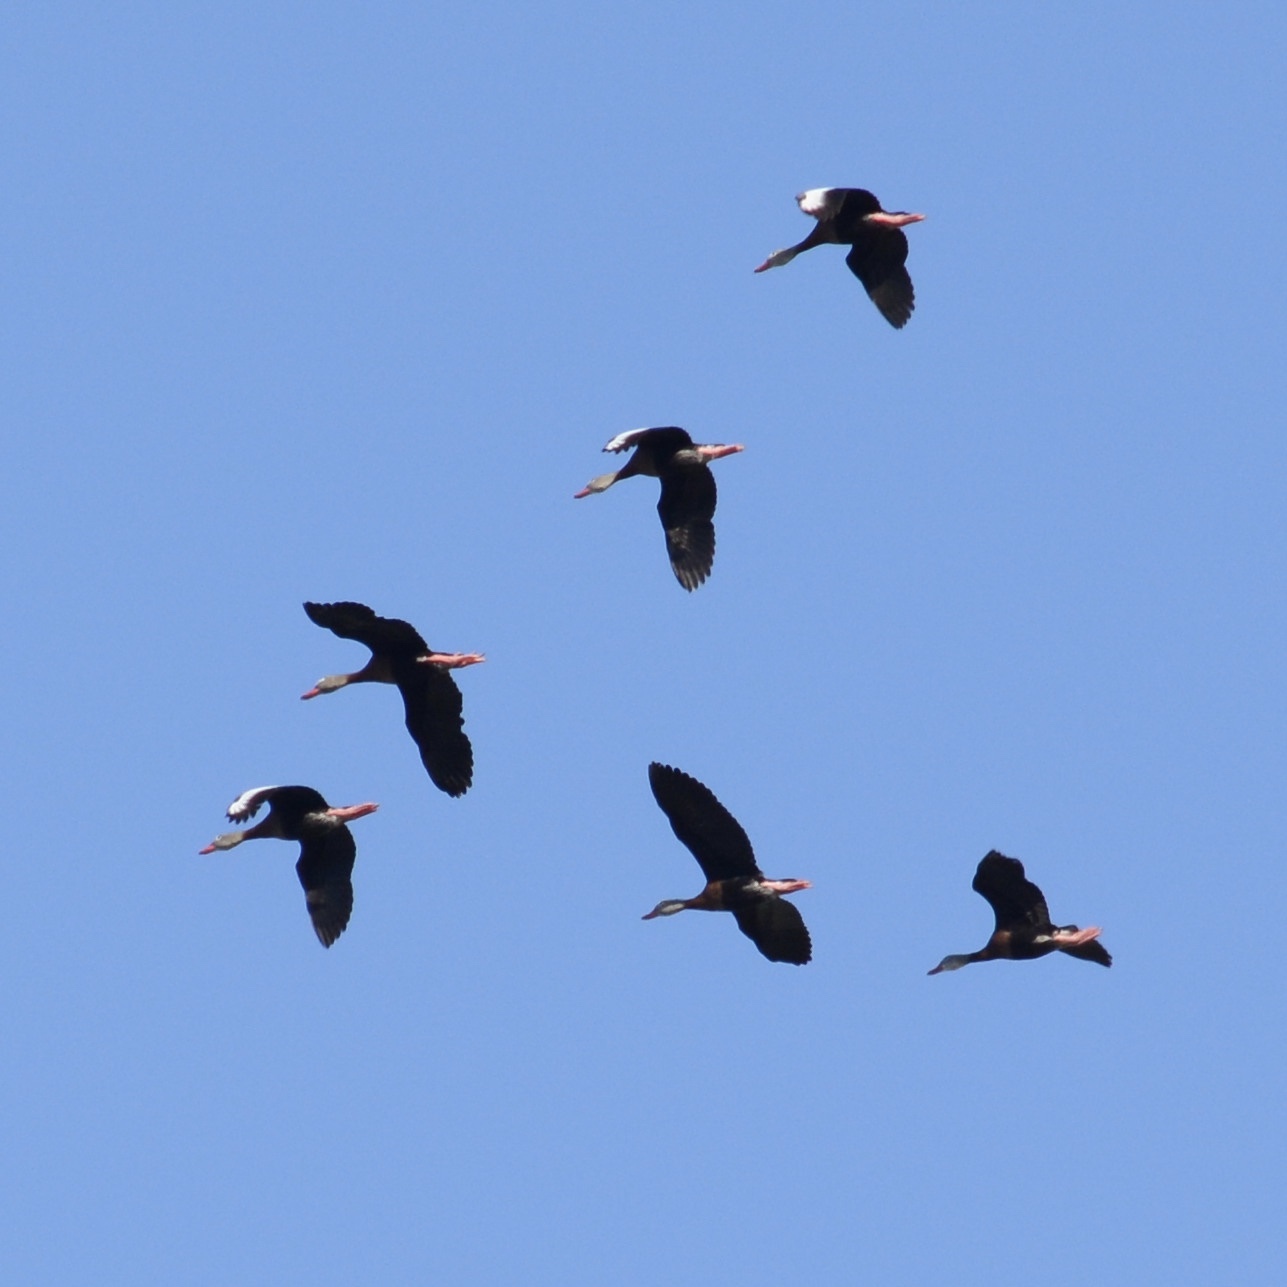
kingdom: Animalia
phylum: Chordata
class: Aves
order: Anseriformes
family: Anatidae
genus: Dendrocygna
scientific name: Dendrocygna autumnalis
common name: Black-bellied whistling duck
